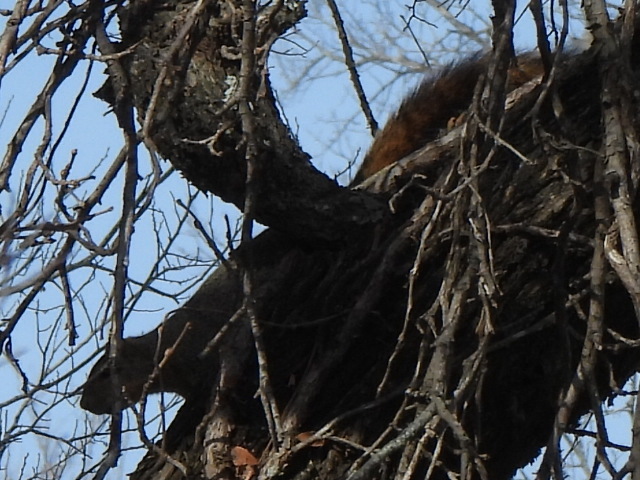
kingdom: Animalia
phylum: Chordata
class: Mammalia
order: Rodentia
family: Sciuridae
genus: Sciurus
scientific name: Sciurus niger
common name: Fox squirrel
